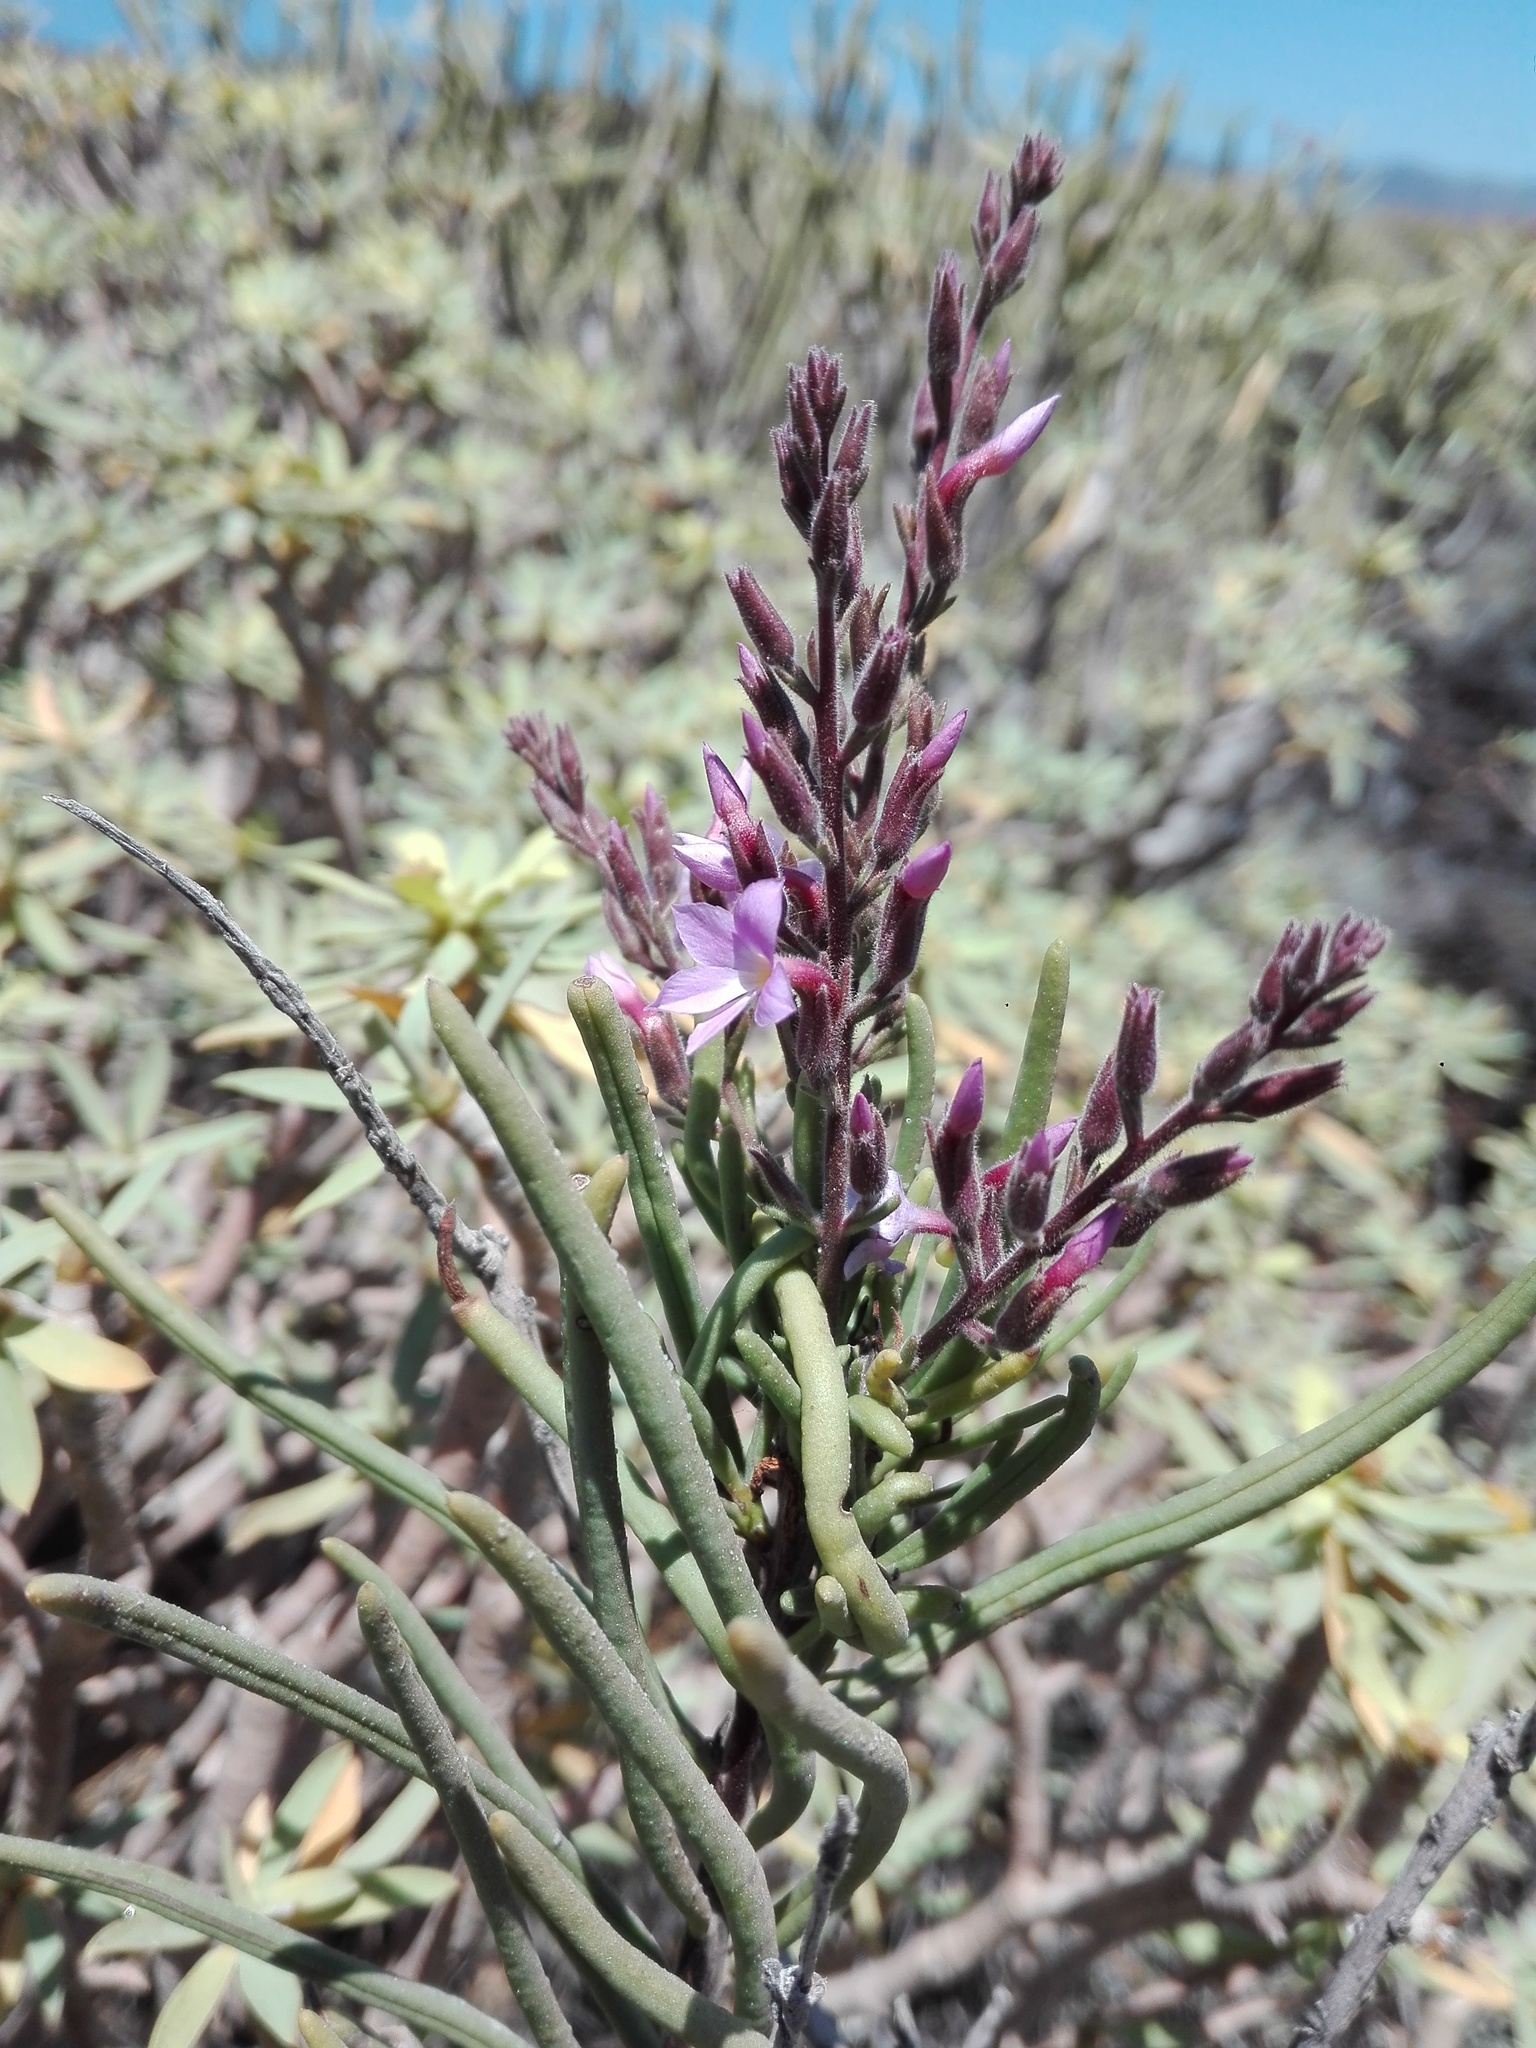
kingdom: Plantae
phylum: Tracheophyta
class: Magnoliopsida
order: Lamiales
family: Plantaginaceae
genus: Campylanthus
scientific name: Campylanthus salsoloides
